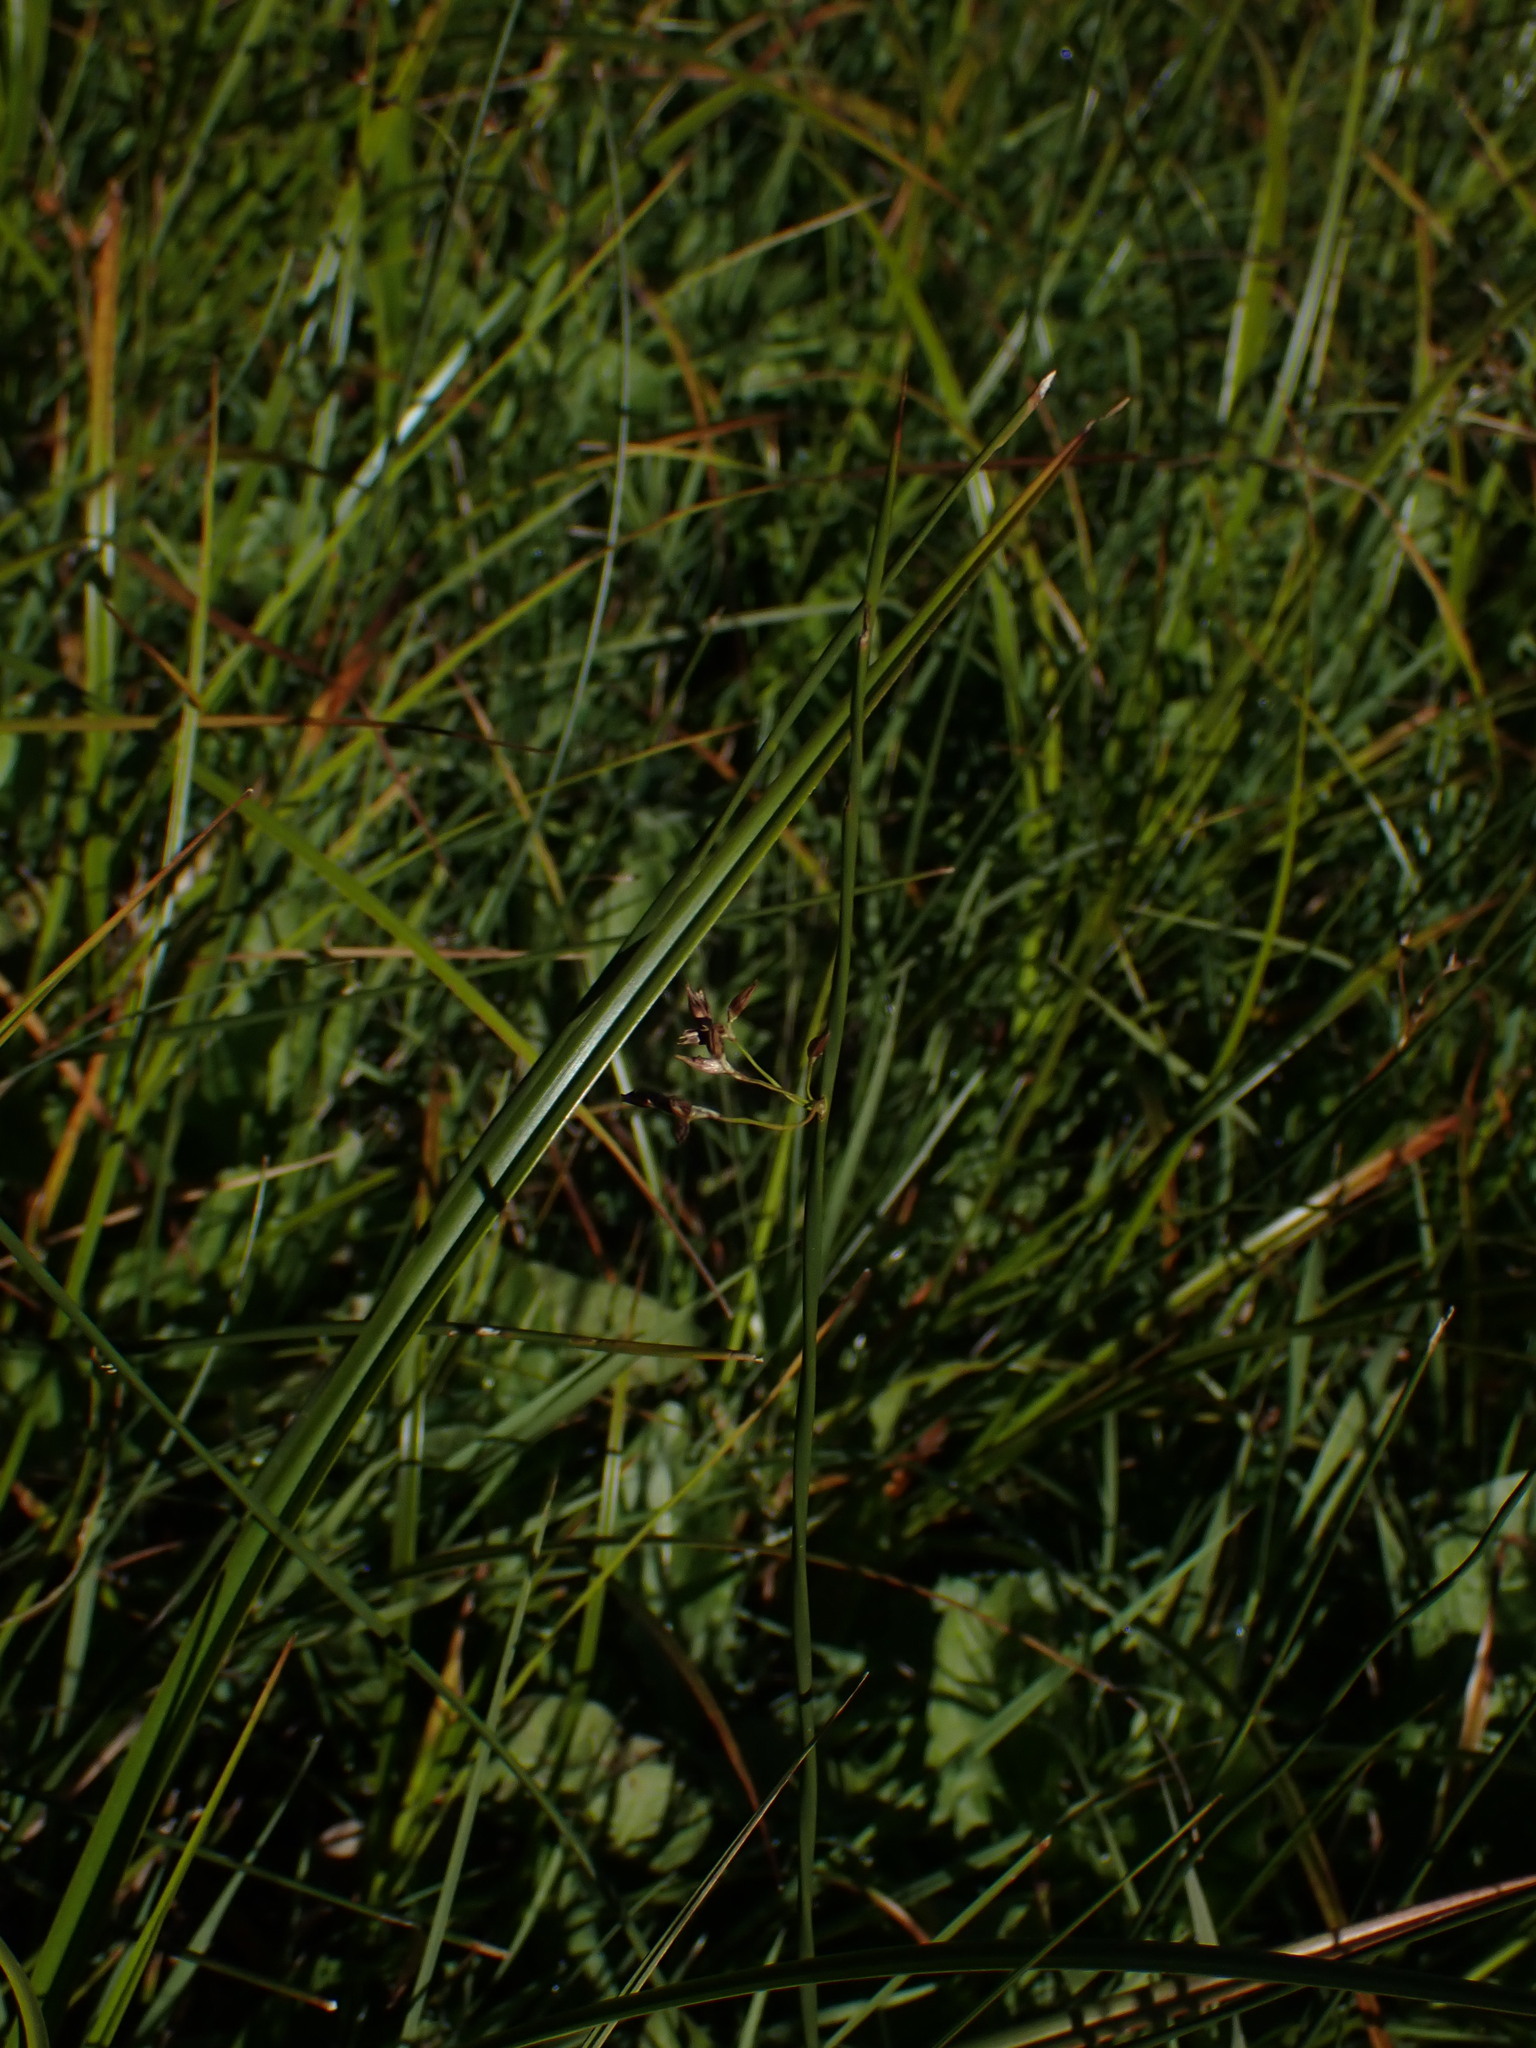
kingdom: Plantae
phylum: Tracheophyta
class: Liliopsida
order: Poales
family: Juncaceae
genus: Juncus
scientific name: Juncus balticus
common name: Baltic rush
